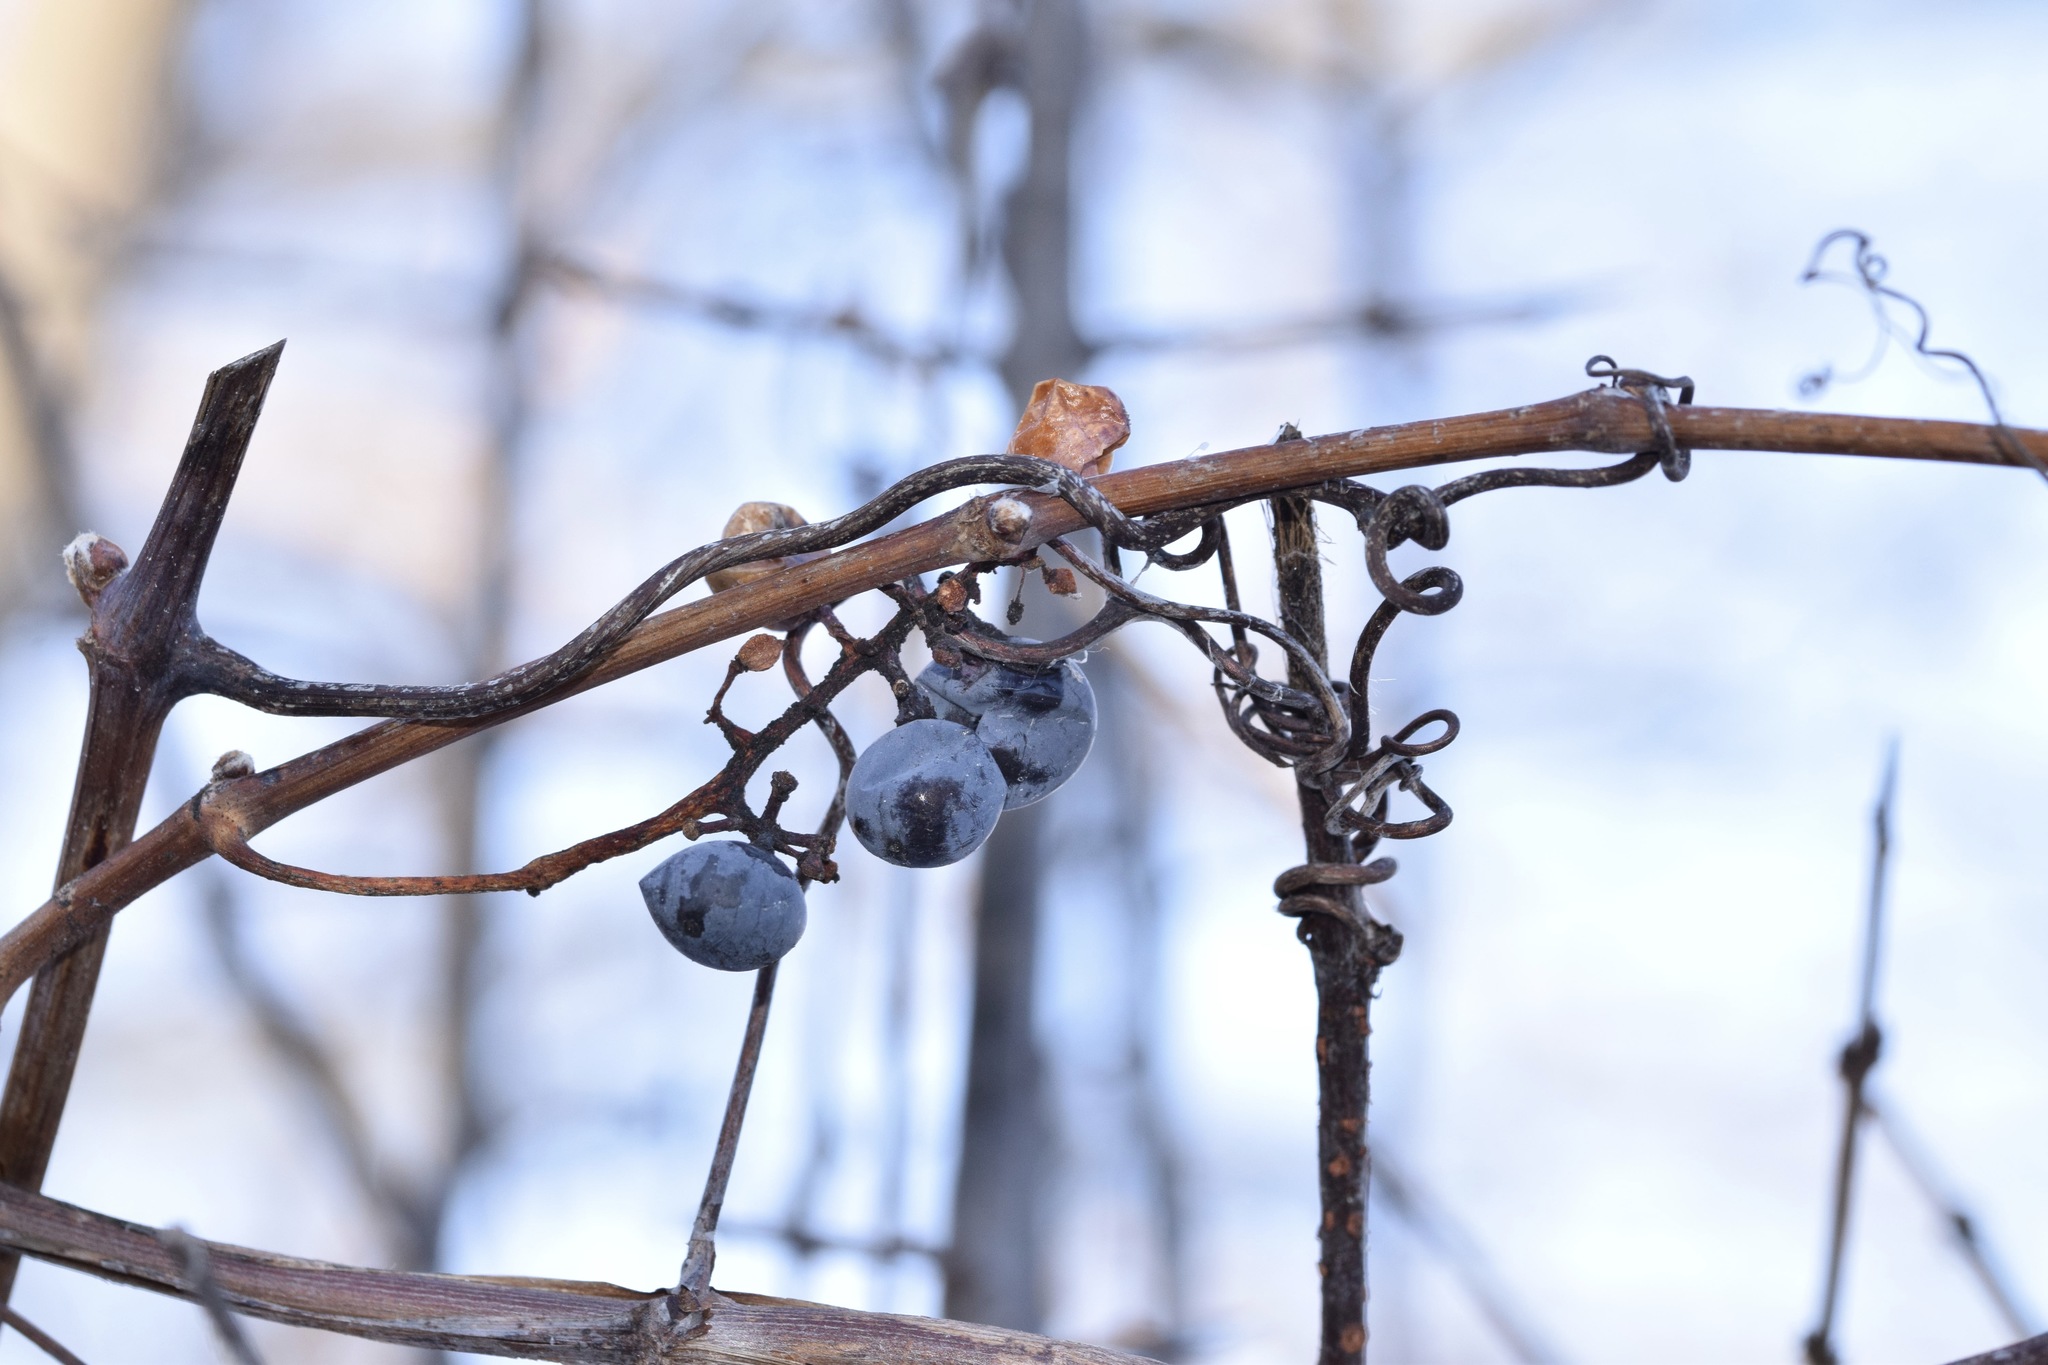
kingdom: Plantae
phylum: Tracheophyta
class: Magnoliopsida
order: Vitales
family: Vitaceae
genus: Parthenocissus
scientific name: Parthenocissus quinquefolia
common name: Virginia-creeper
